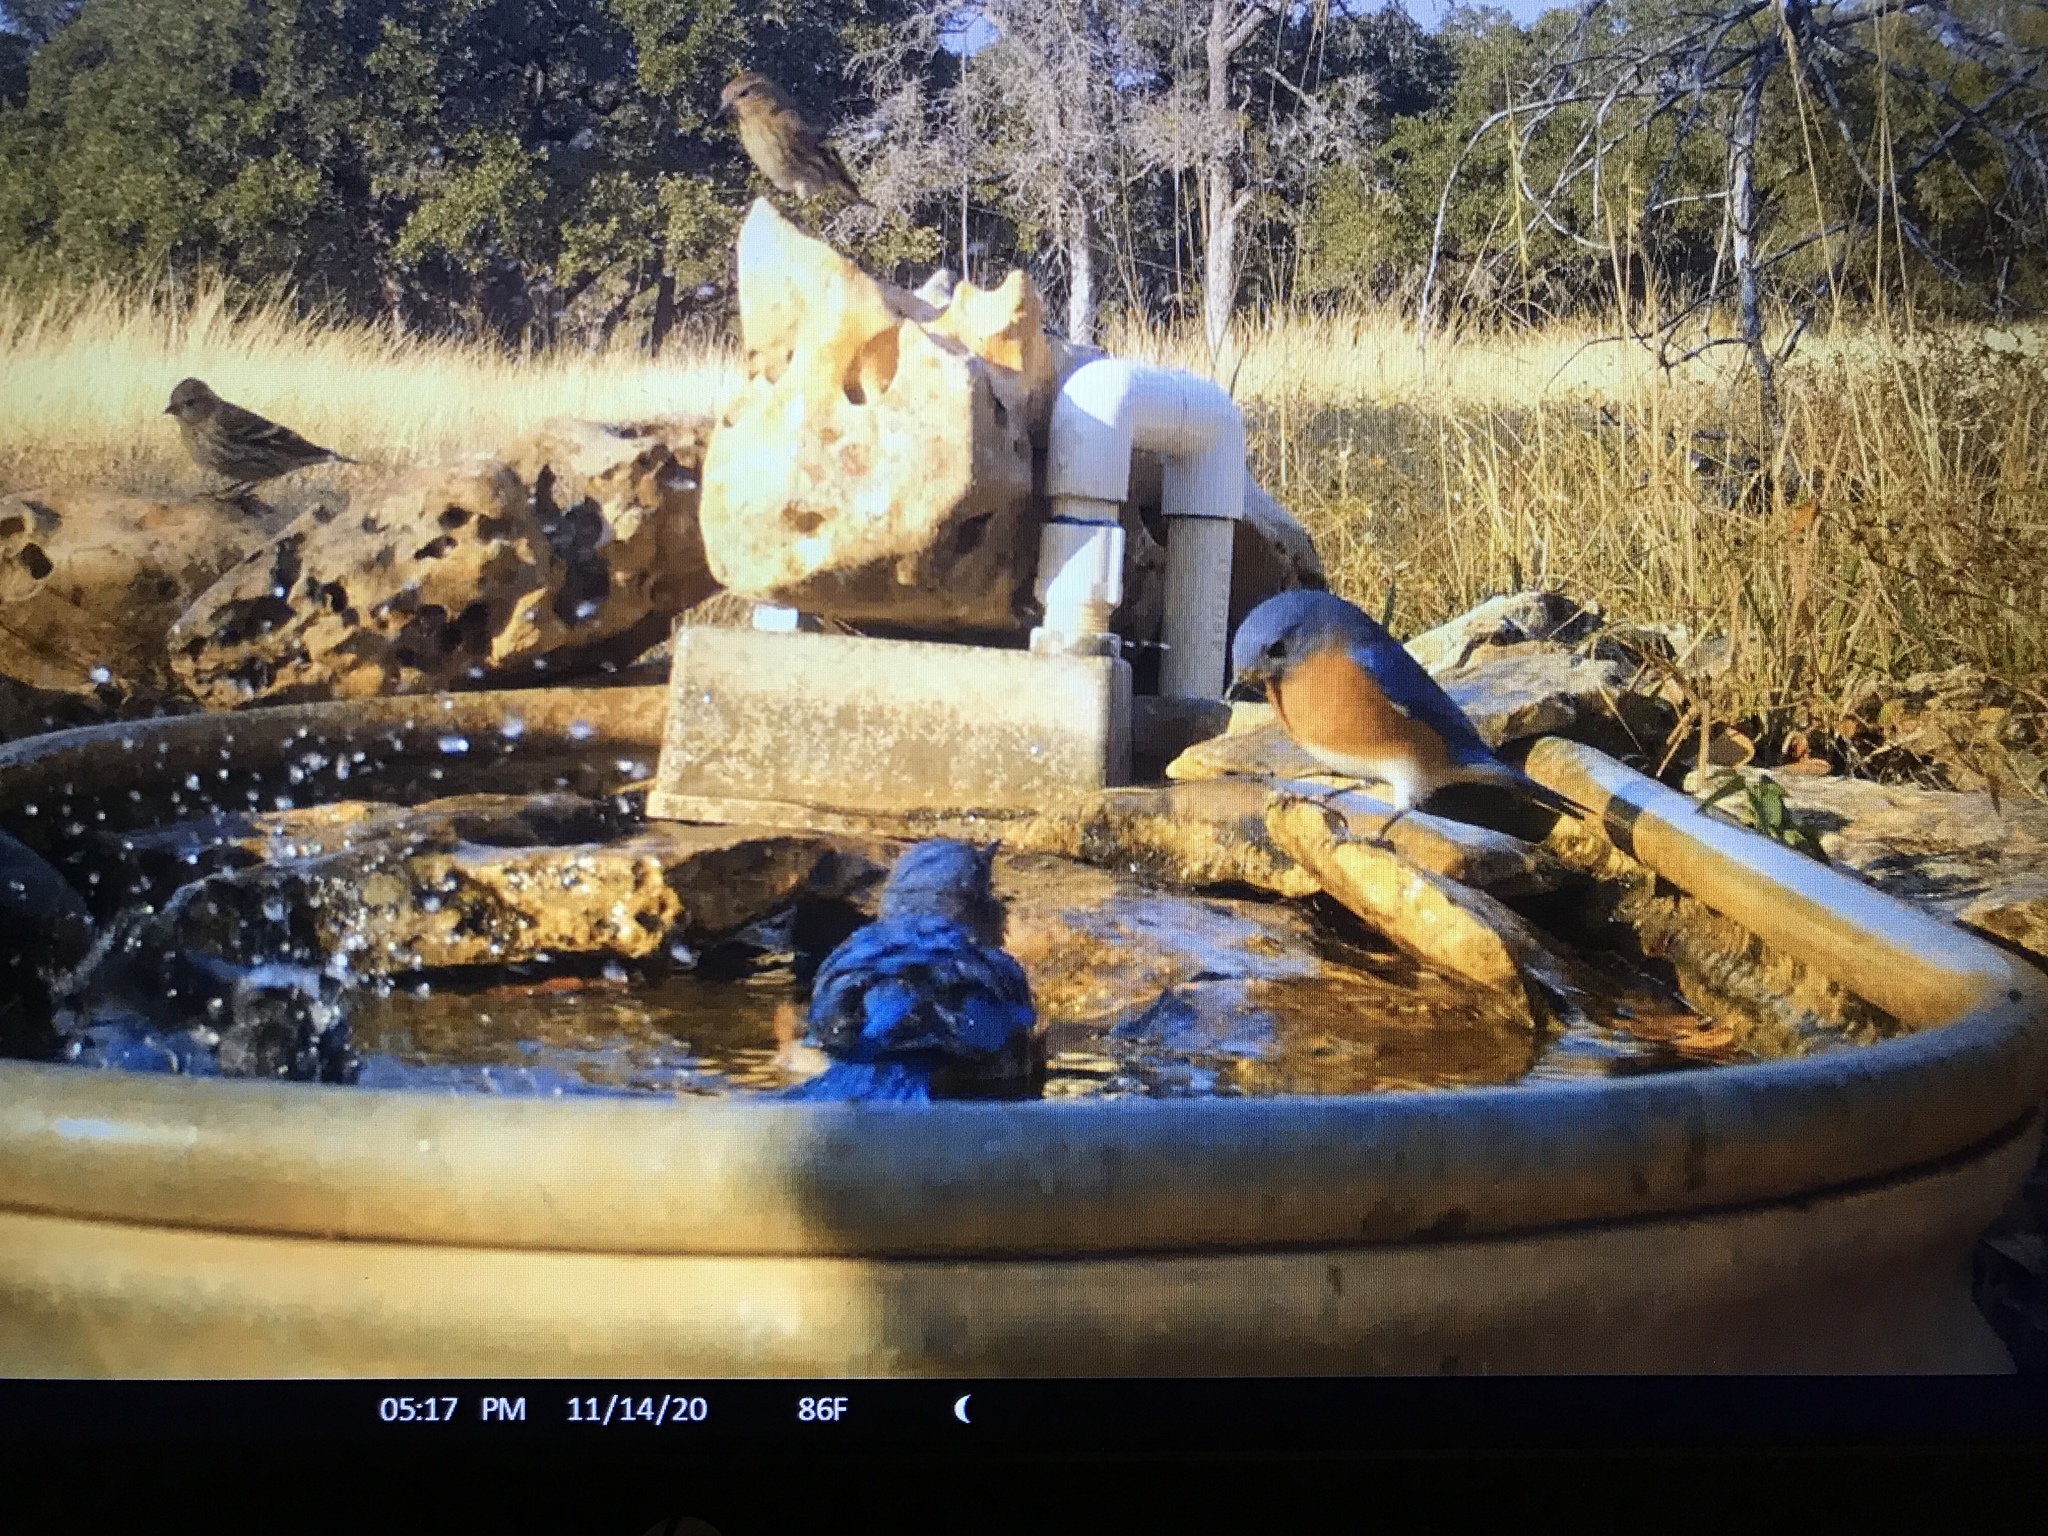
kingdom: Animalia
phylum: Chordata
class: Aves
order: Passeriformes
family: Turdidae
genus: Sialia
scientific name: Sialia sialis
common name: Eastern bluebird
